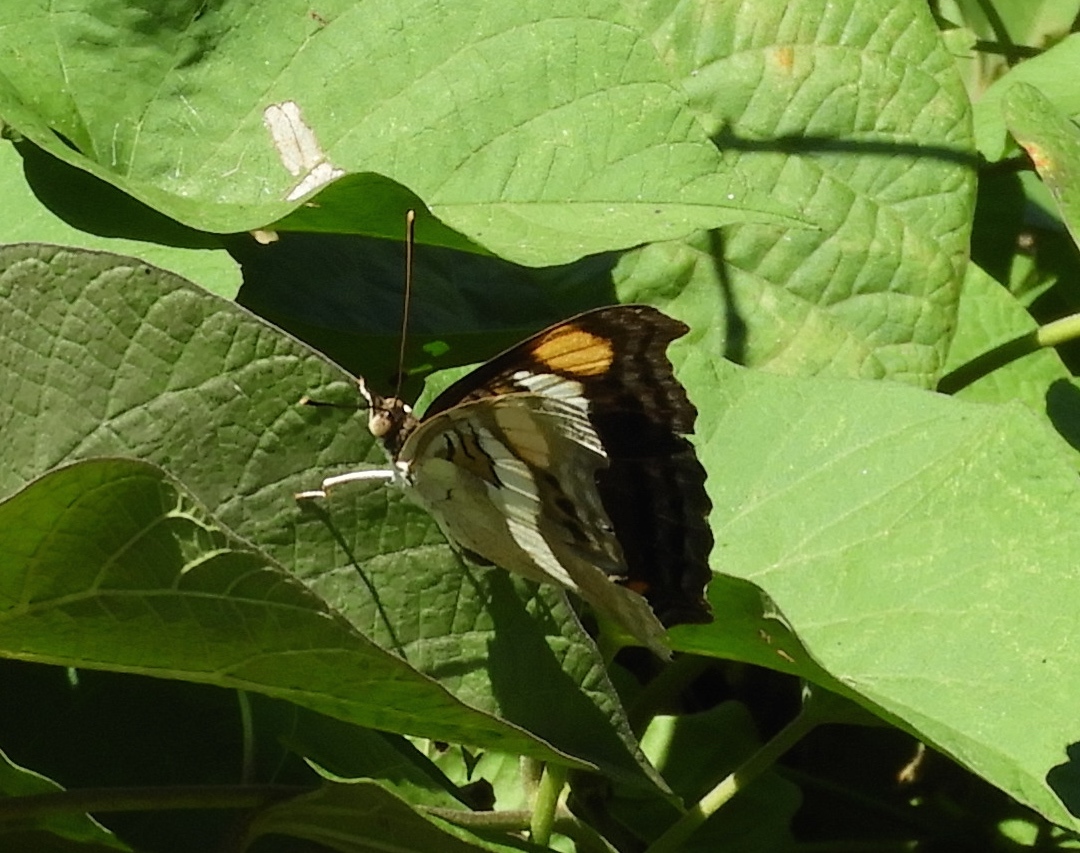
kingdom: Animalia
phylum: Arthropoda
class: Insecta
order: Lepidoptera
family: Nymphalidae
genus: Doxocopa
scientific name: Doxocopa laure
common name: Silver emperor
